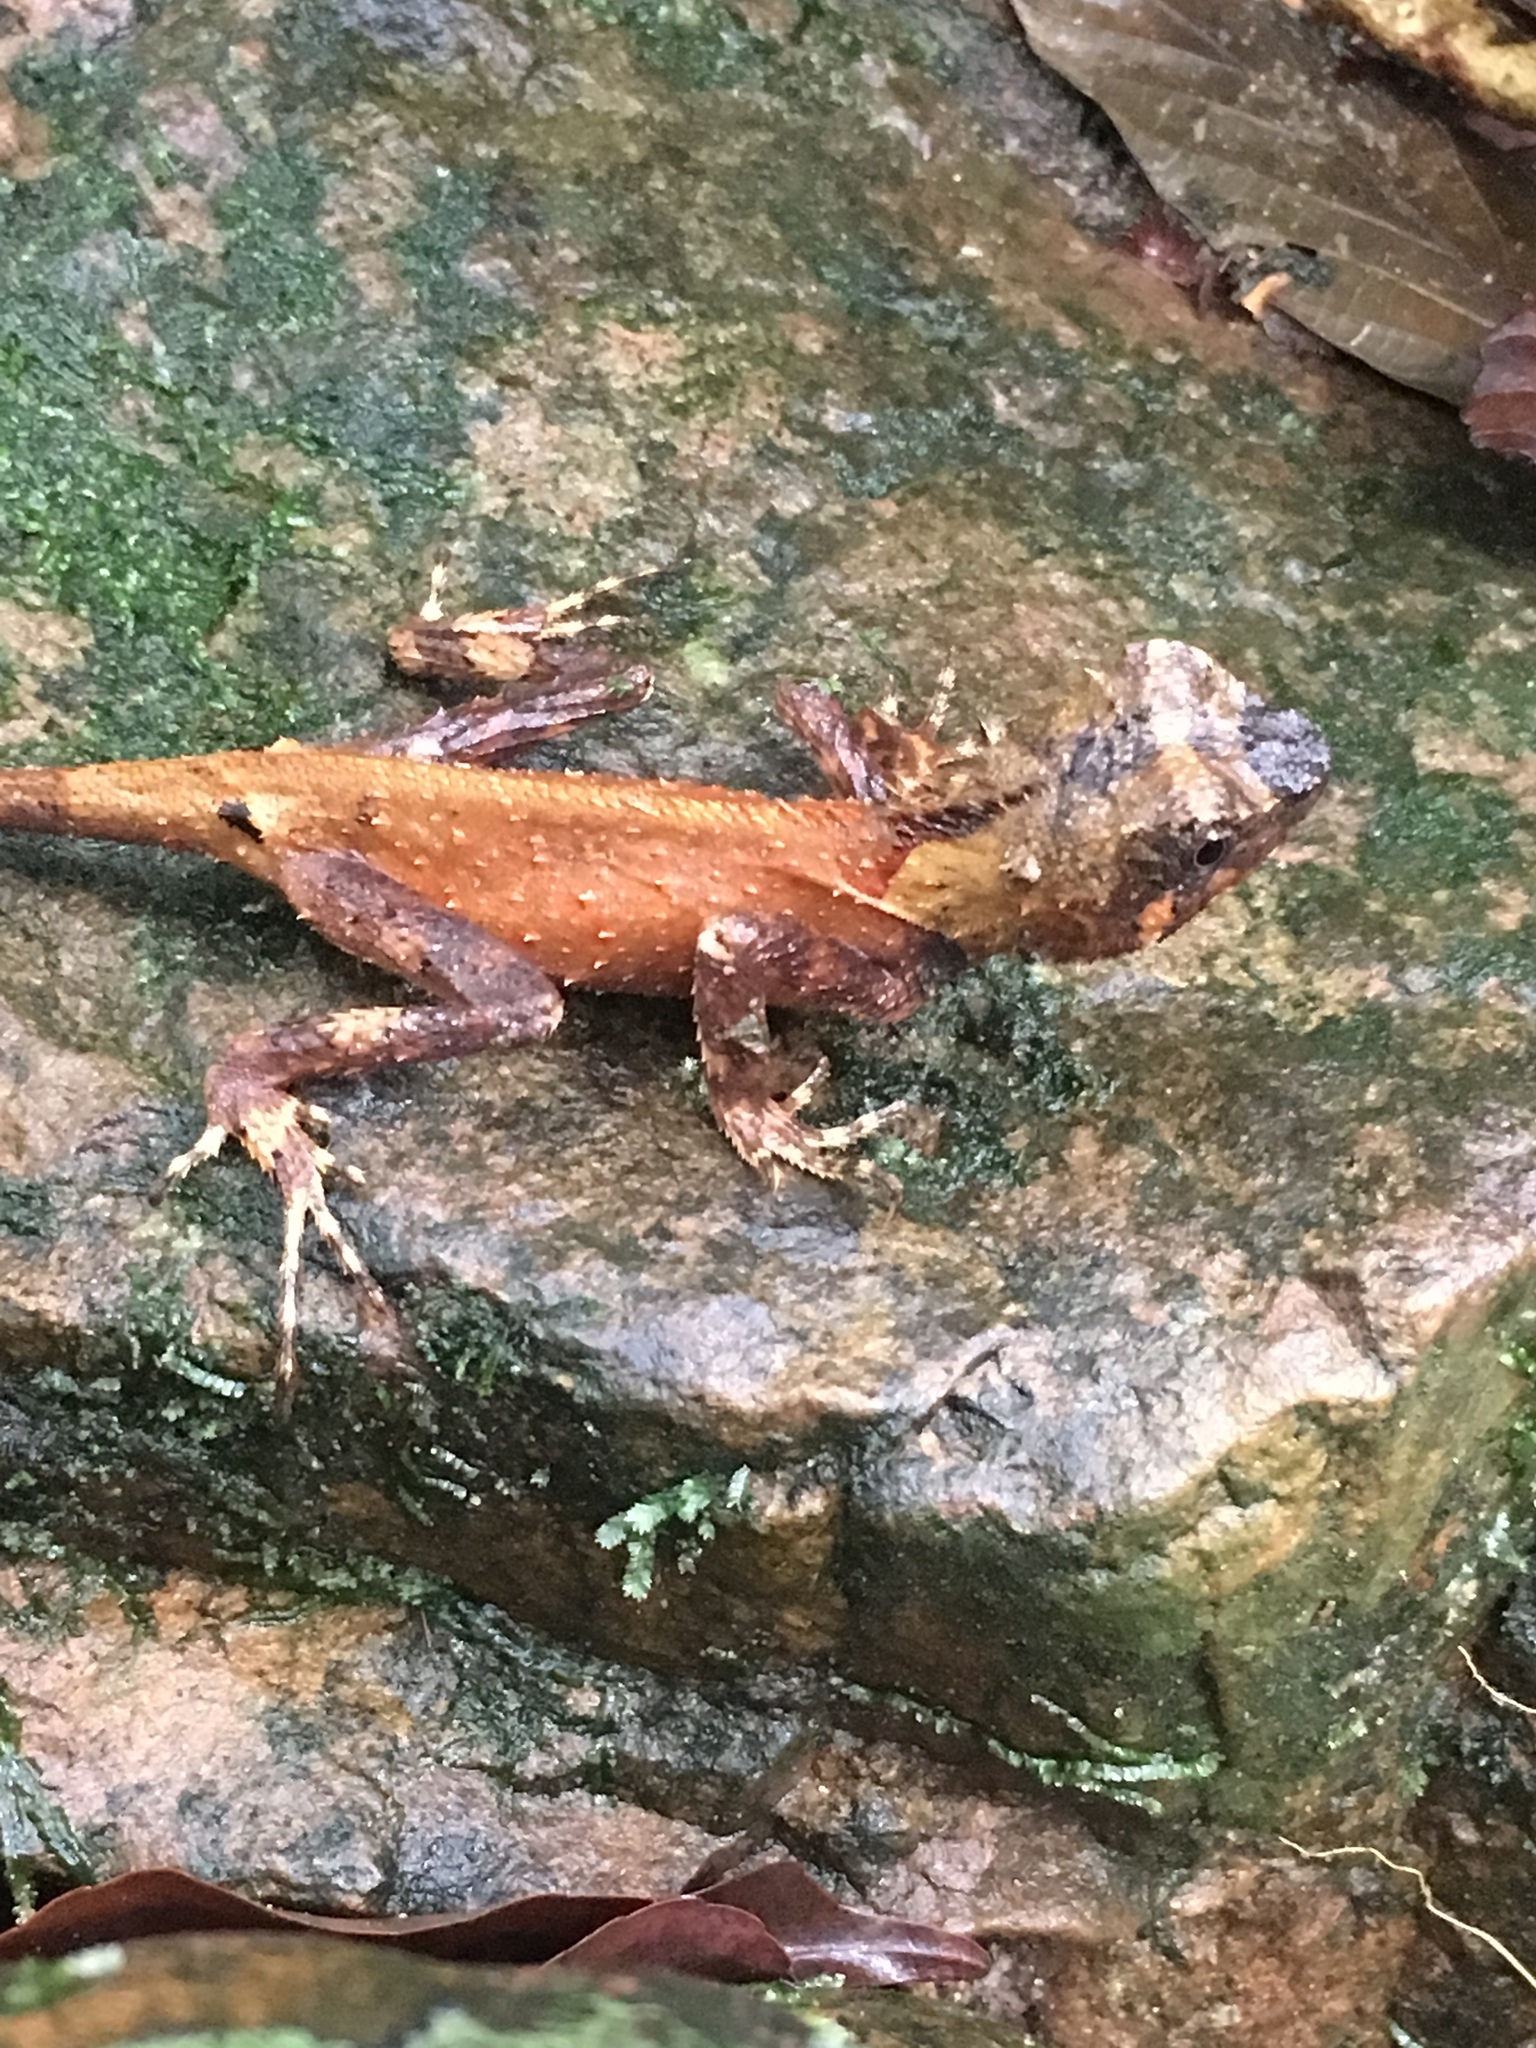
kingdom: Animalia
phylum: Chordata
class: Squamata
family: Agamidae
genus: Acanthosaura
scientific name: Acanthosaura lepidogaster
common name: Brown pricklenape
